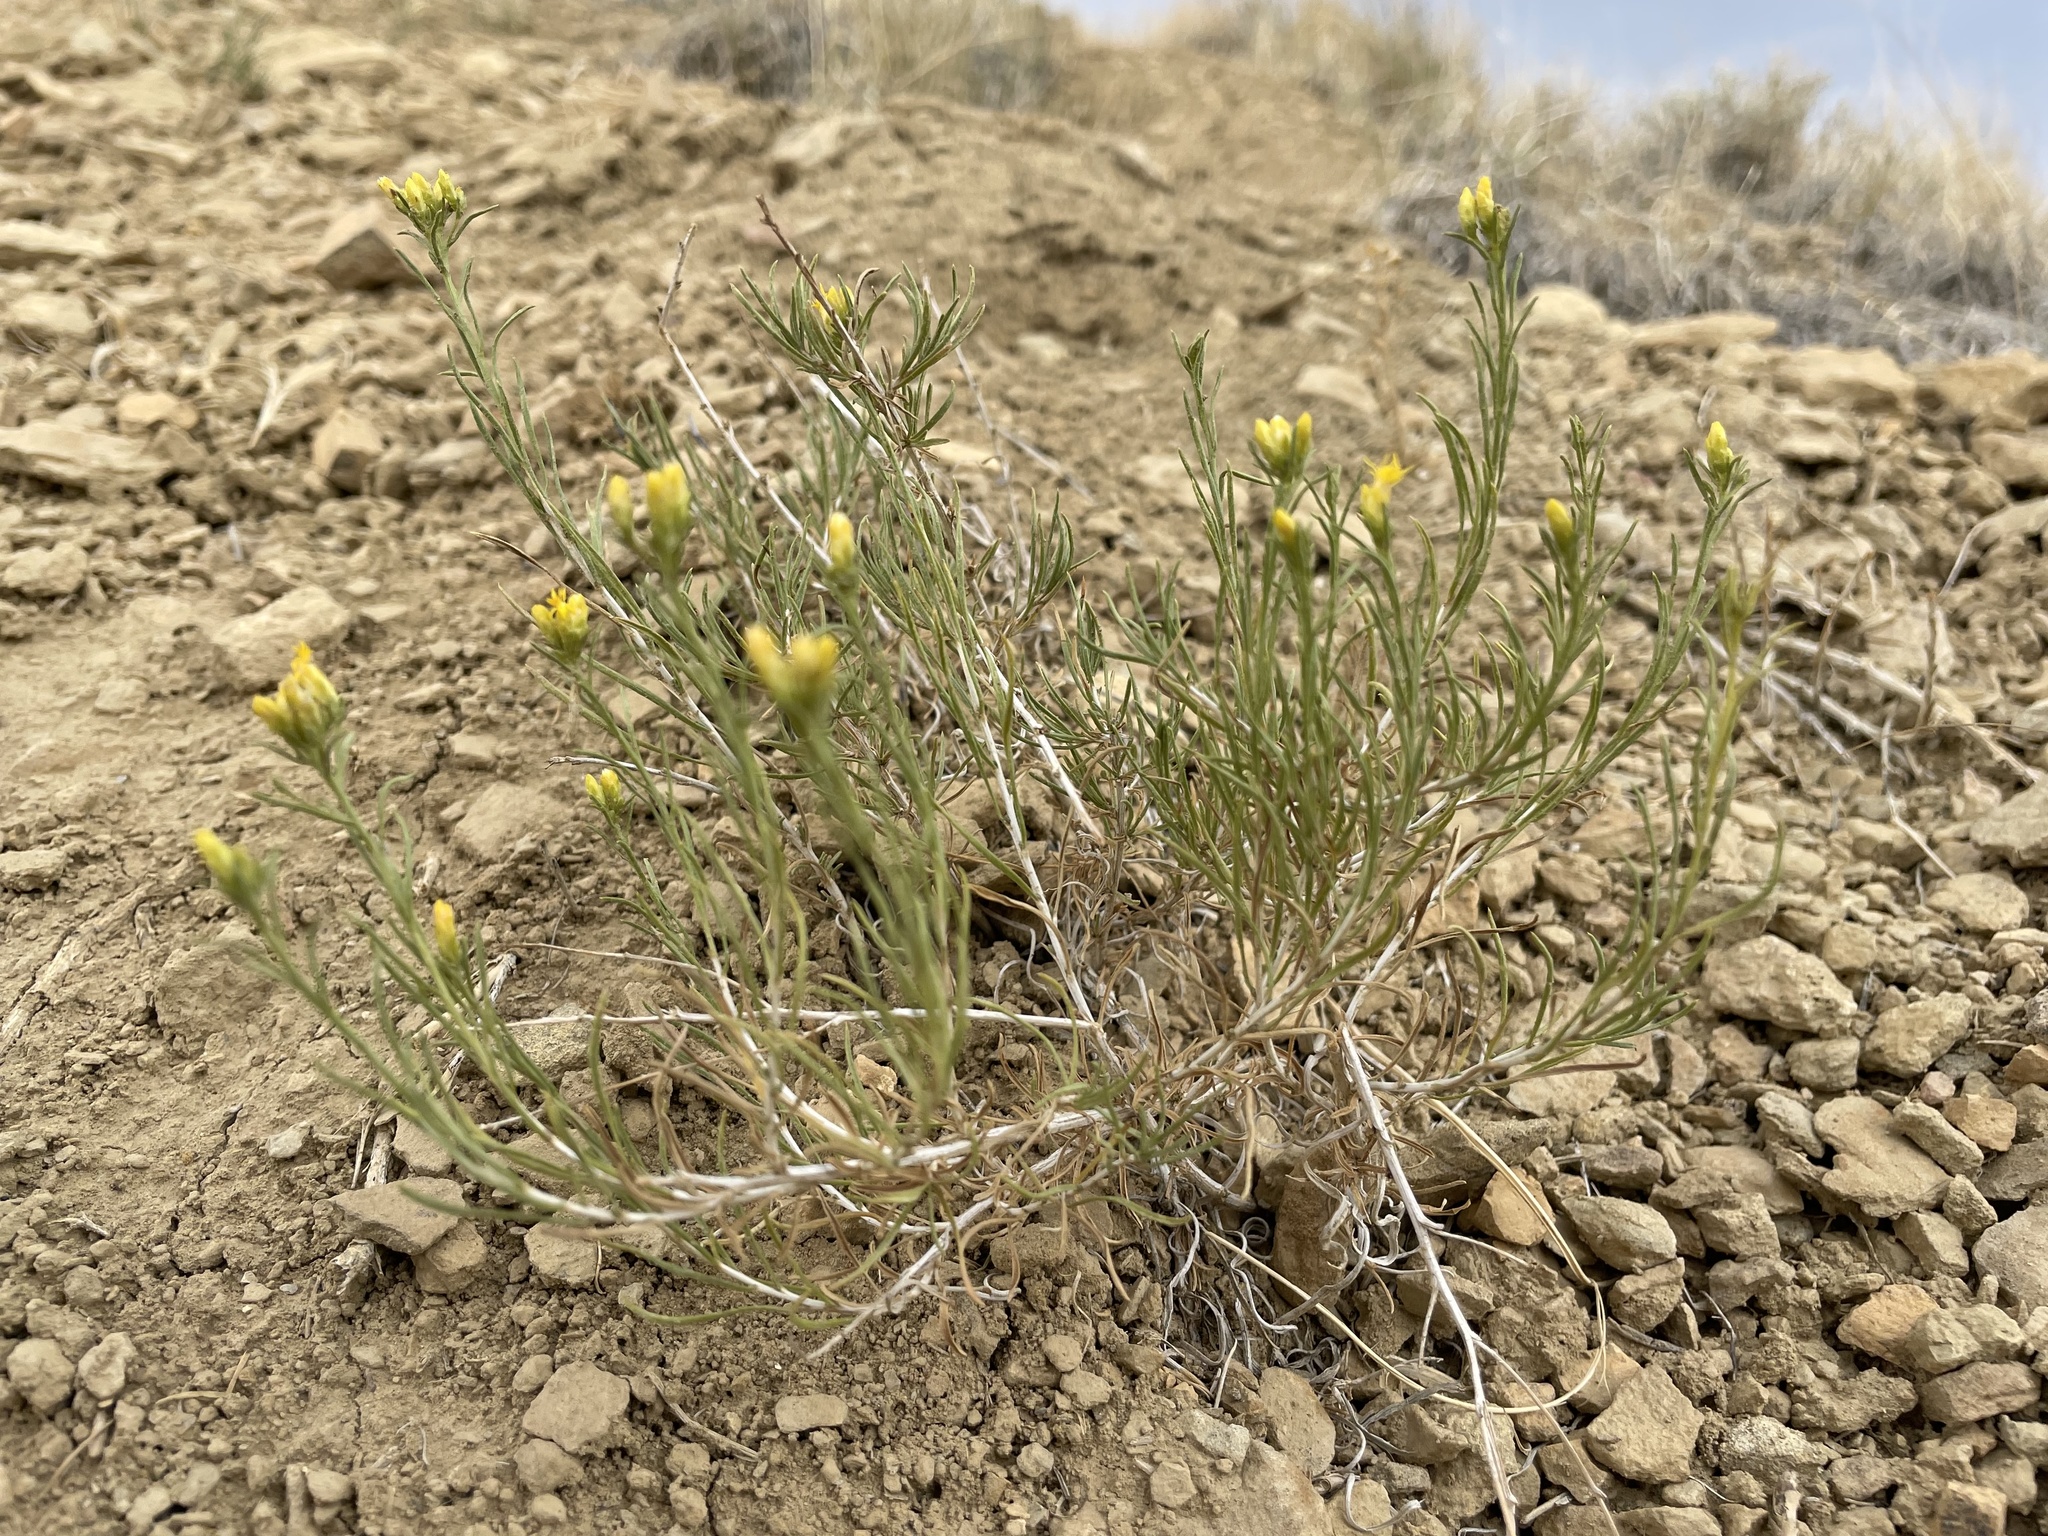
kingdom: Plantae
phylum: Tracheophyta
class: Magnoliopsida
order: Asterales
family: Asteraceae
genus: Gutierrezia
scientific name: Gutierrezia sarothrae
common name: Broom snakeweed
